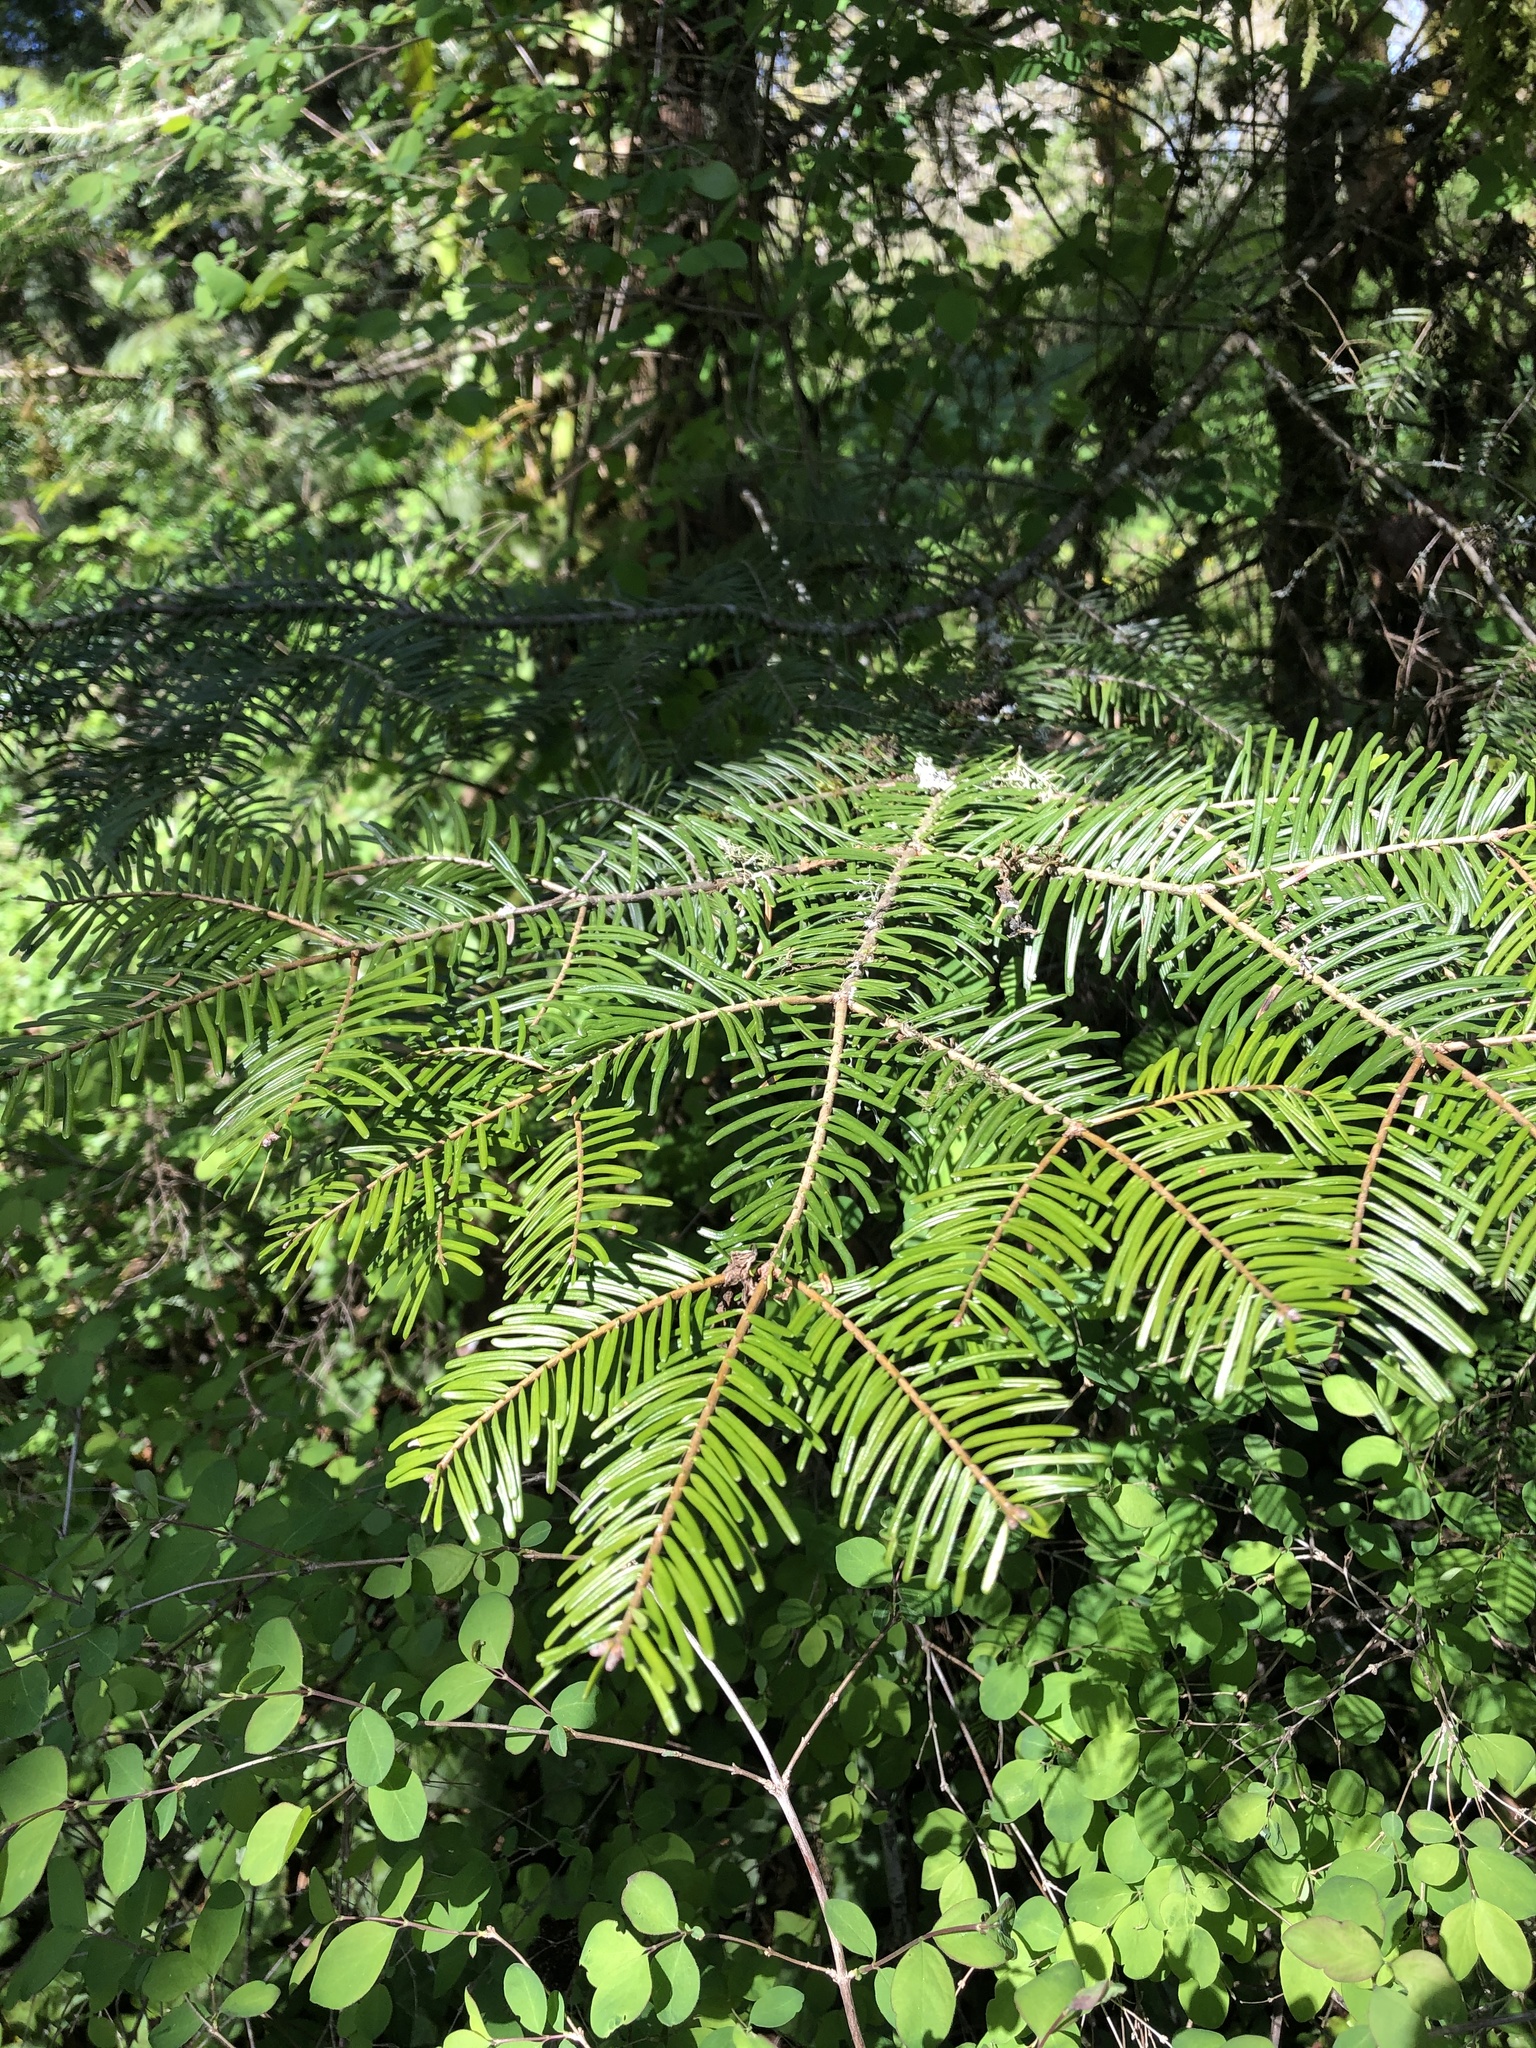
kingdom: Plantae
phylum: Tracheophyta
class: Pinopsida
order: Pinales
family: Pinaceae
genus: Abies
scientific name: Abies grandis
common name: Giant fir
